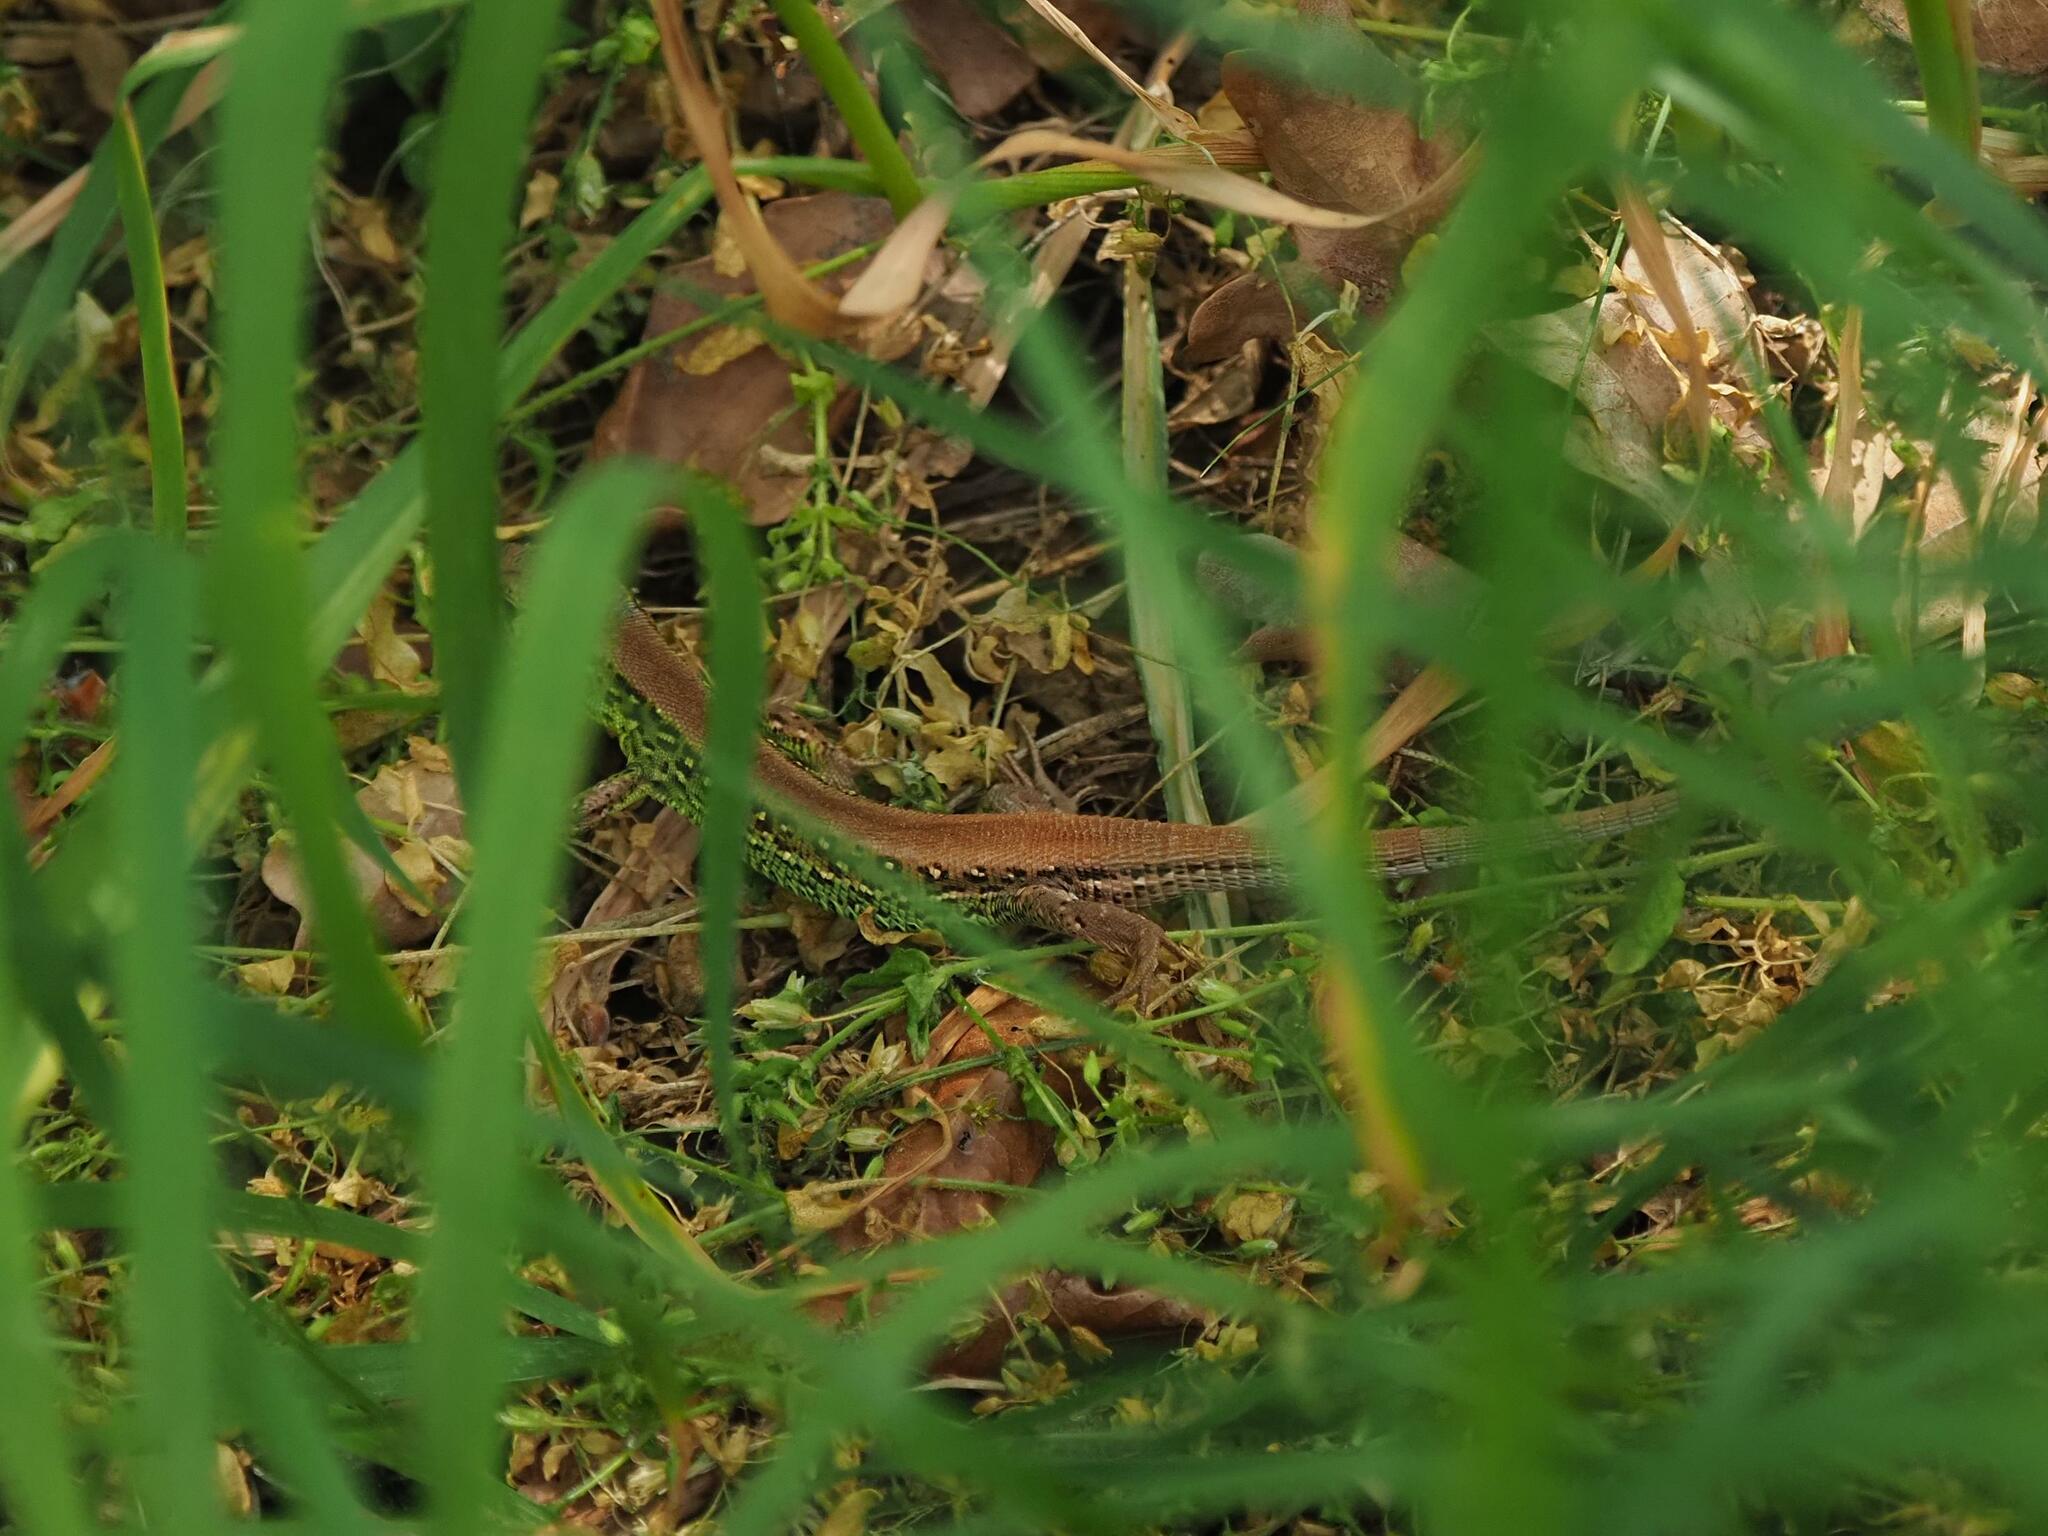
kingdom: Animalia
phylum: Chordata
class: Squamata
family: Lacertidae
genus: Lacerta
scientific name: Lacerta agilis
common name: Sand lizard
